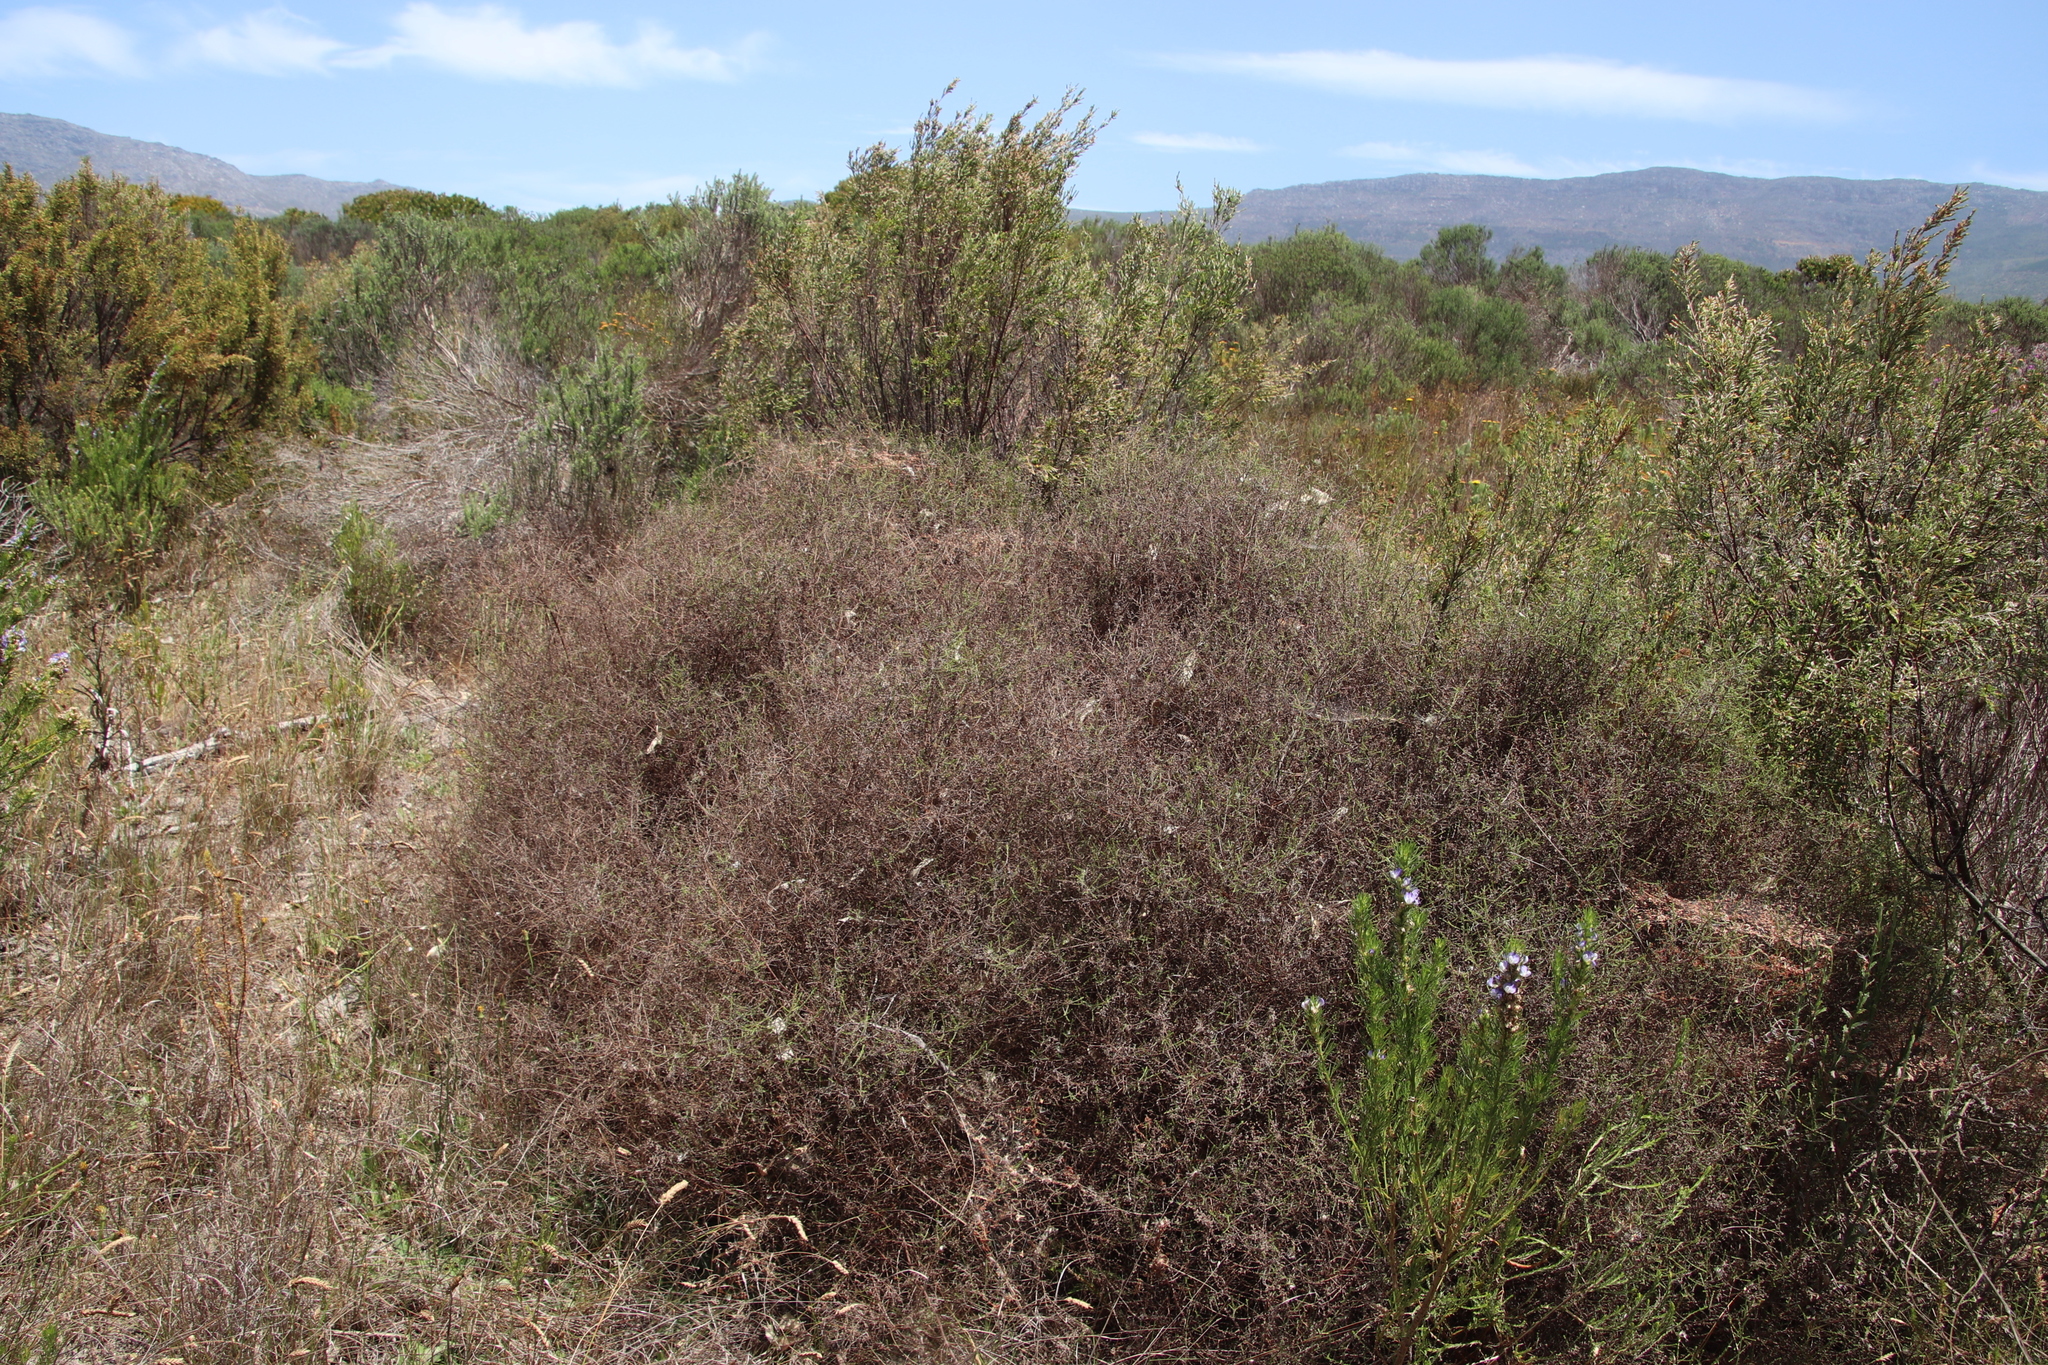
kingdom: Plantae
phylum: Tracheophyta
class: Magnoliopsida
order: Asterales
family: Asteraceae
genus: Myrovernix
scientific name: Myrovernix scaber
